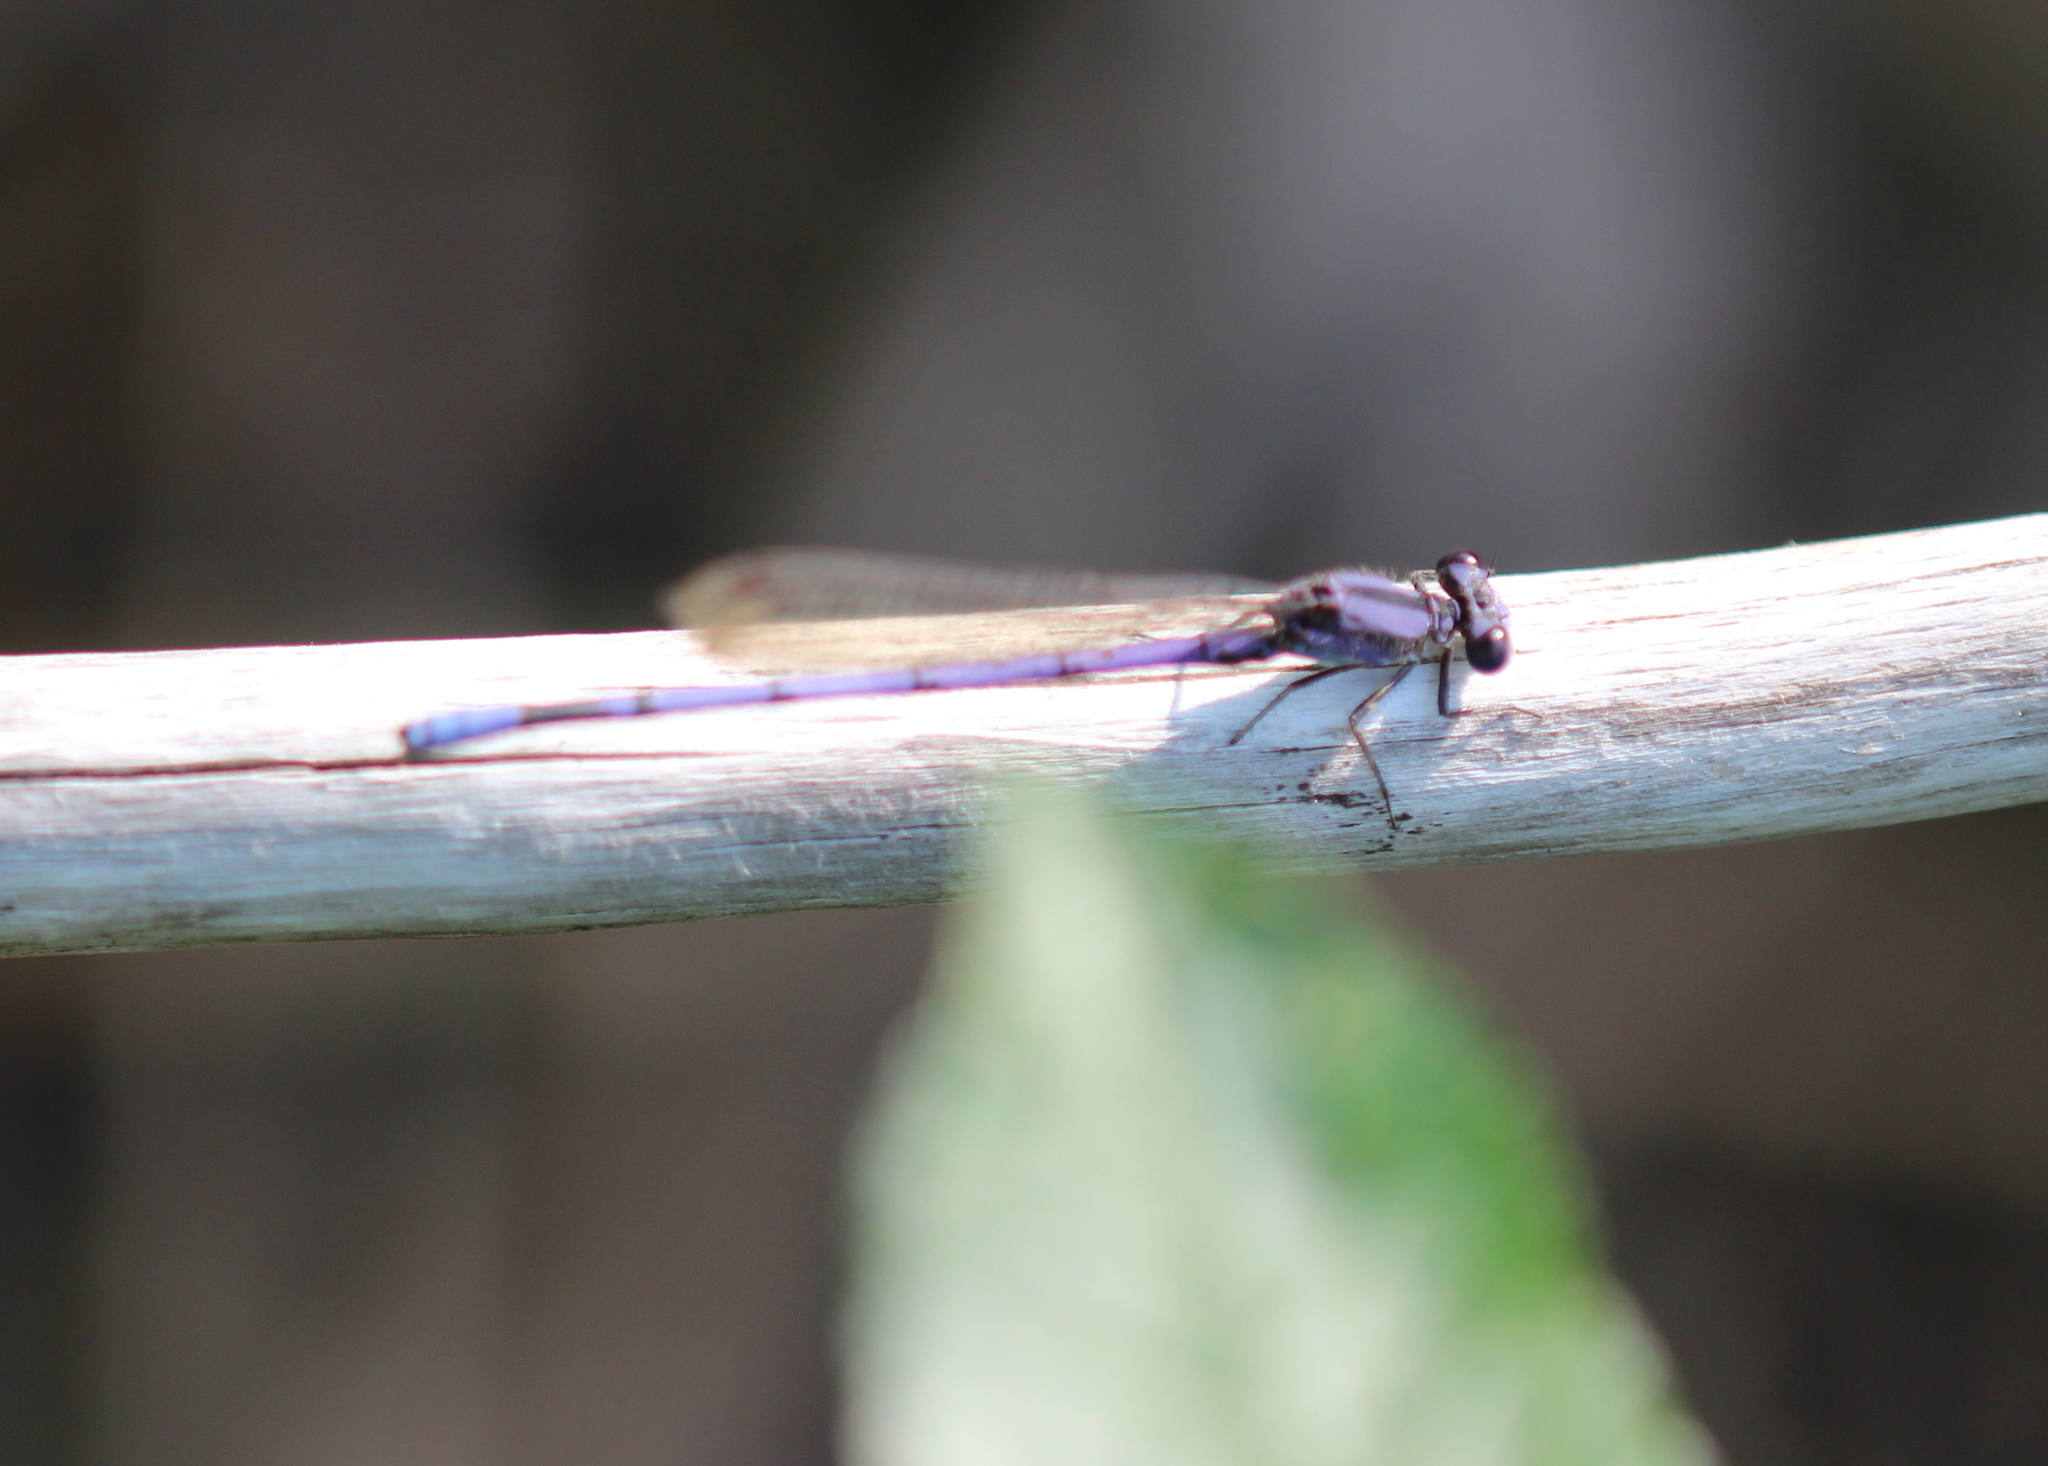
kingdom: Animalia
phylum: Arthropoda
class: Insecta
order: Odonata
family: Coenagrionidae
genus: Argia
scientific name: Argia fumipennis
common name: Variable dancer
